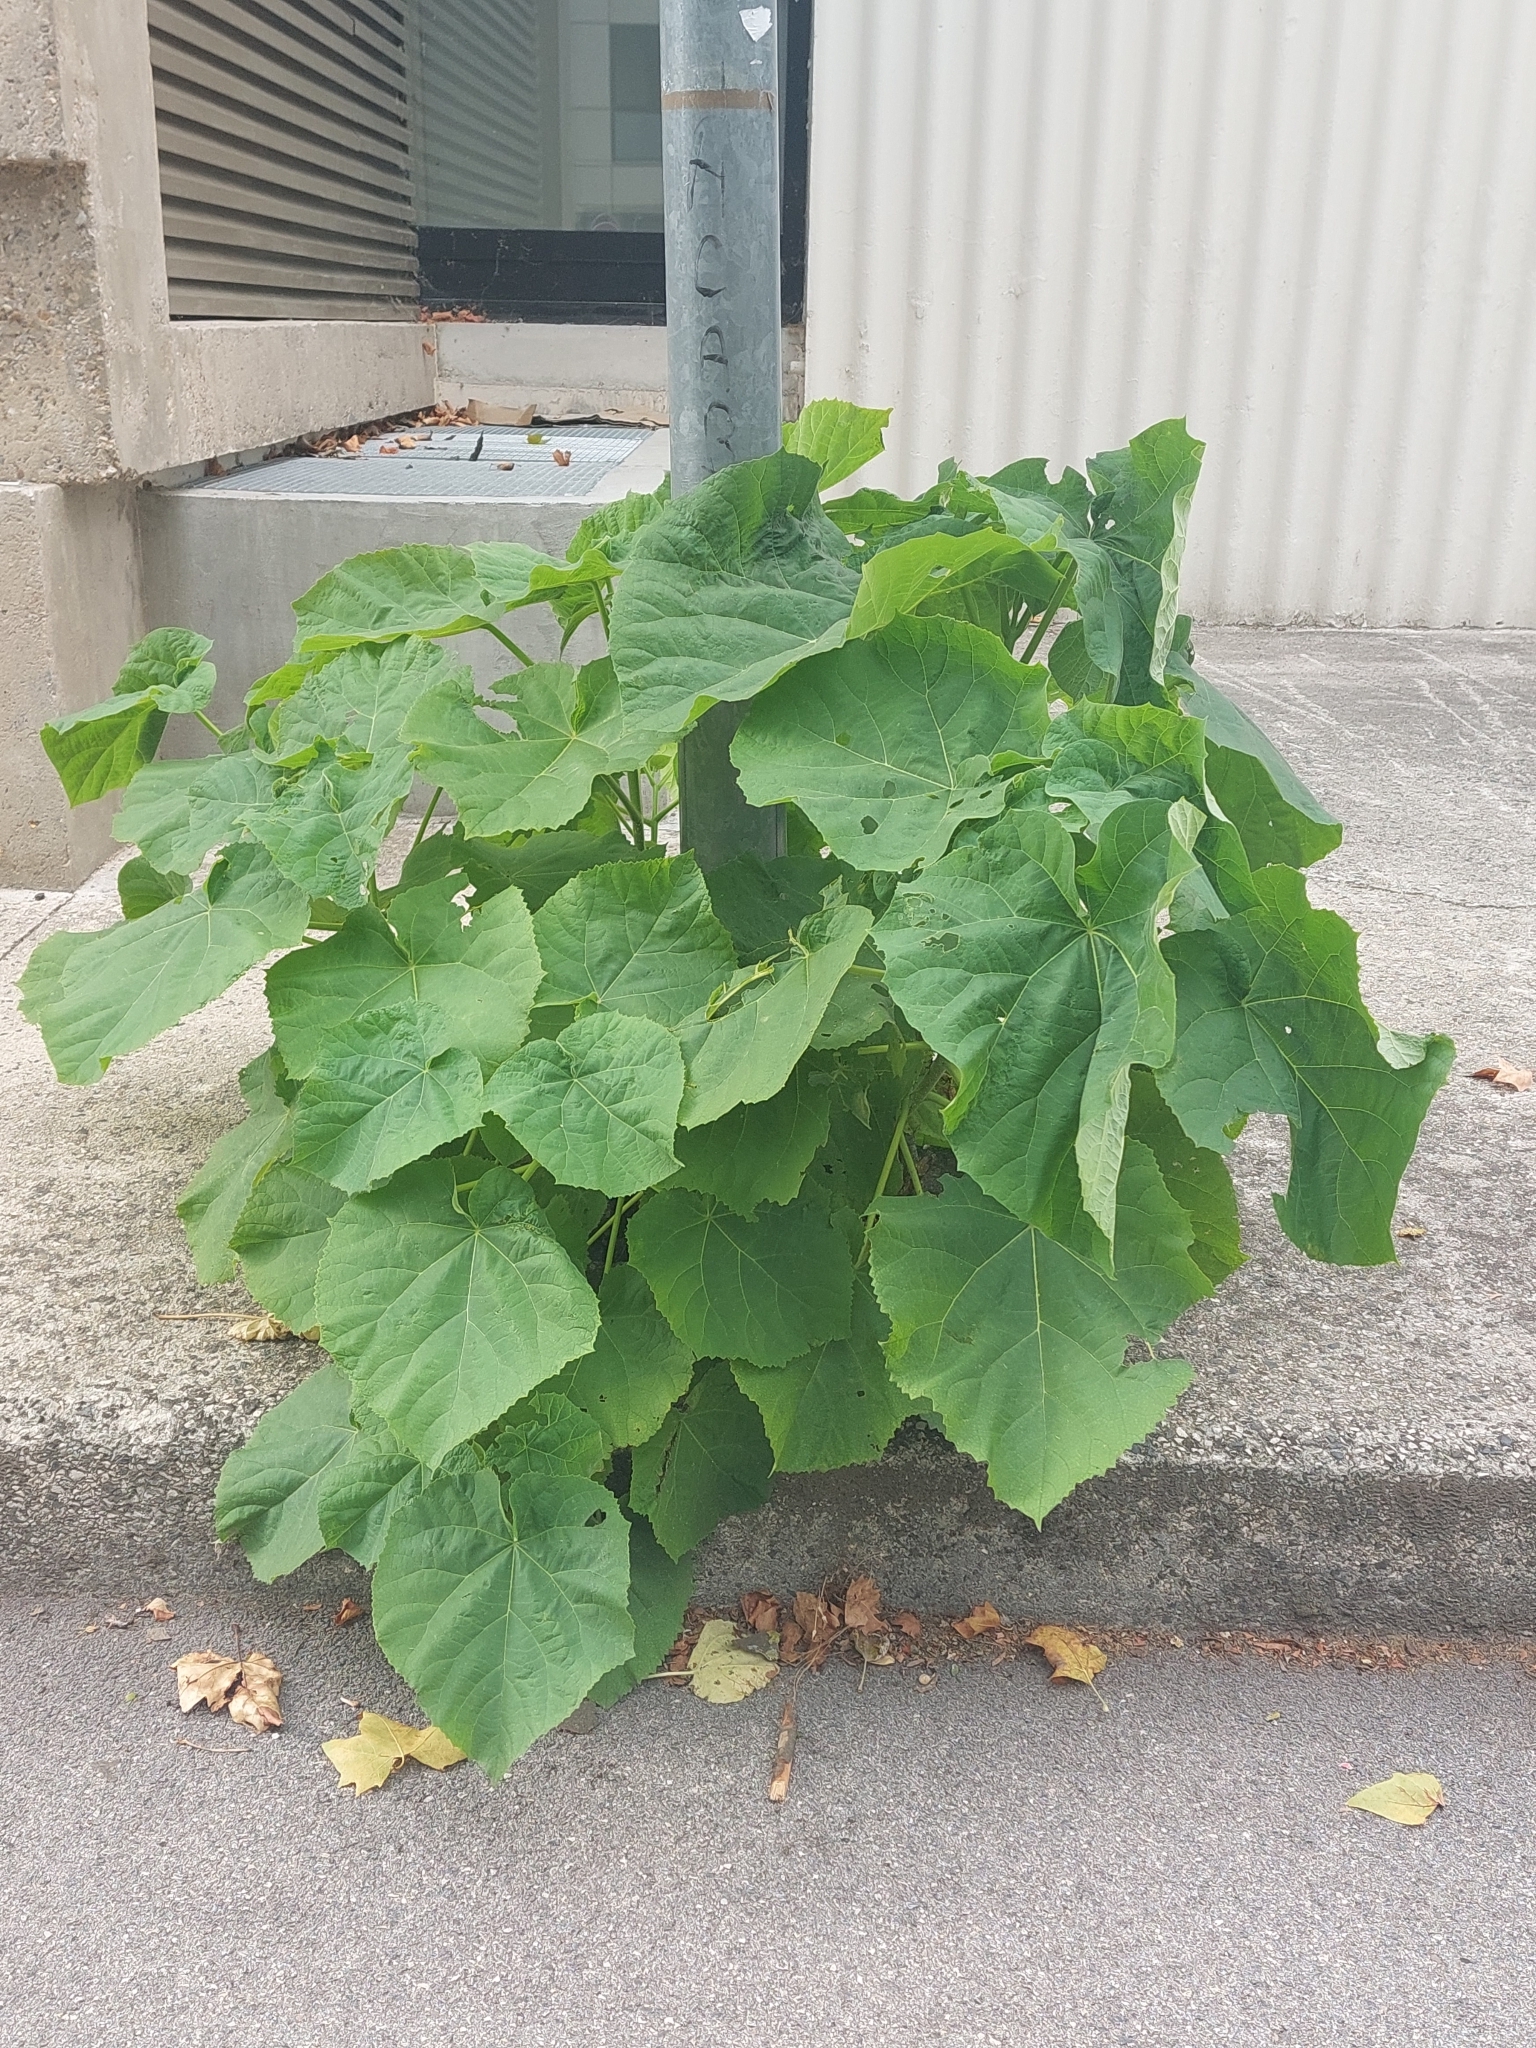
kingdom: Plantae
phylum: Tracheophyta
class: Magnoliopsida
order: Lamiales
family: Paulowniaceae
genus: Paulownia
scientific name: Paulownia tomentosa
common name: Foxglove-tree
